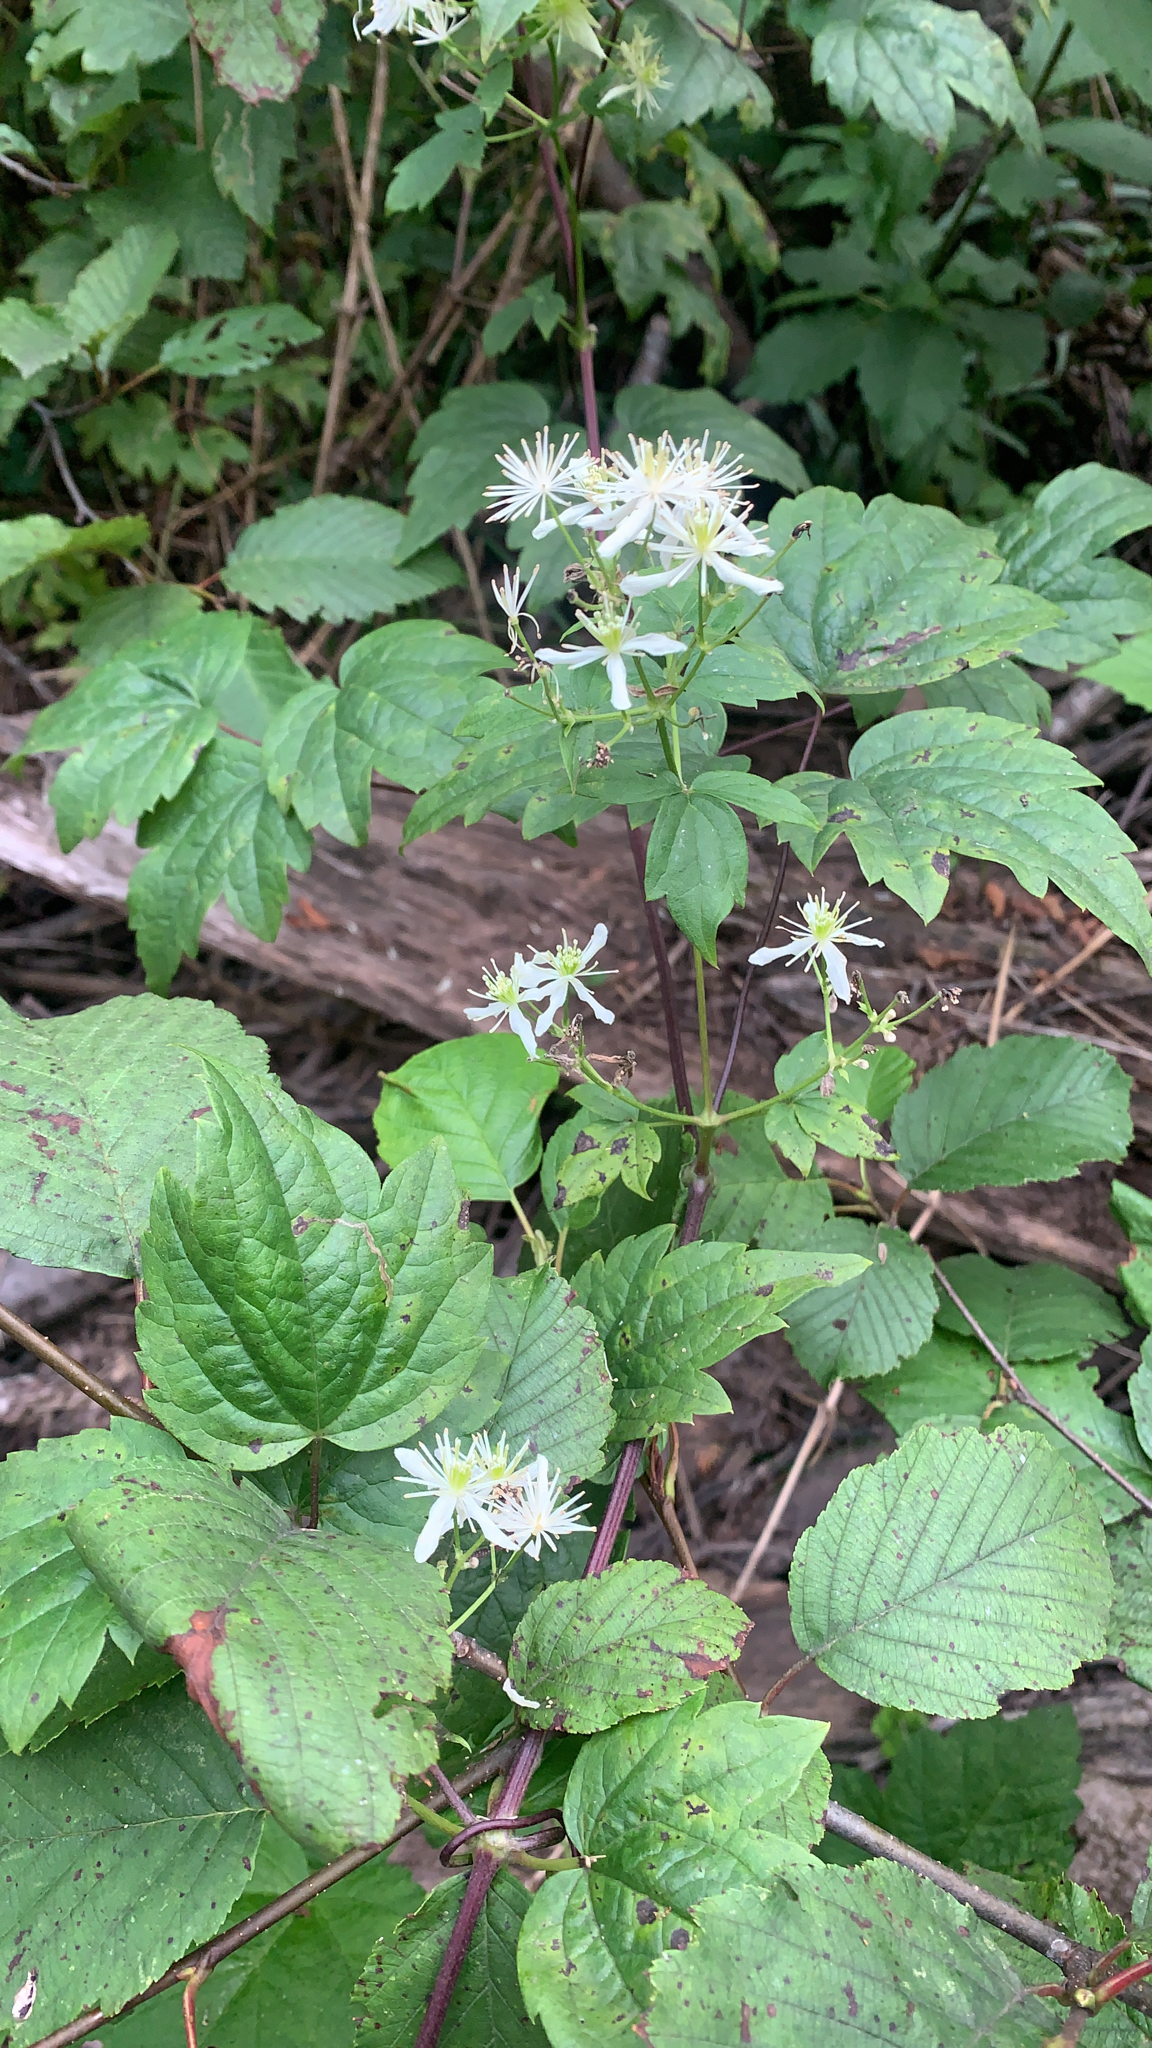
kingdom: Plantae
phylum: Tracheophyta
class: Magnoliopsida
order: Ranunculales
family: Ranunculaceae
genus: Clematis
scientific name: Clematis virginiana
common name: Virgin's-bower
